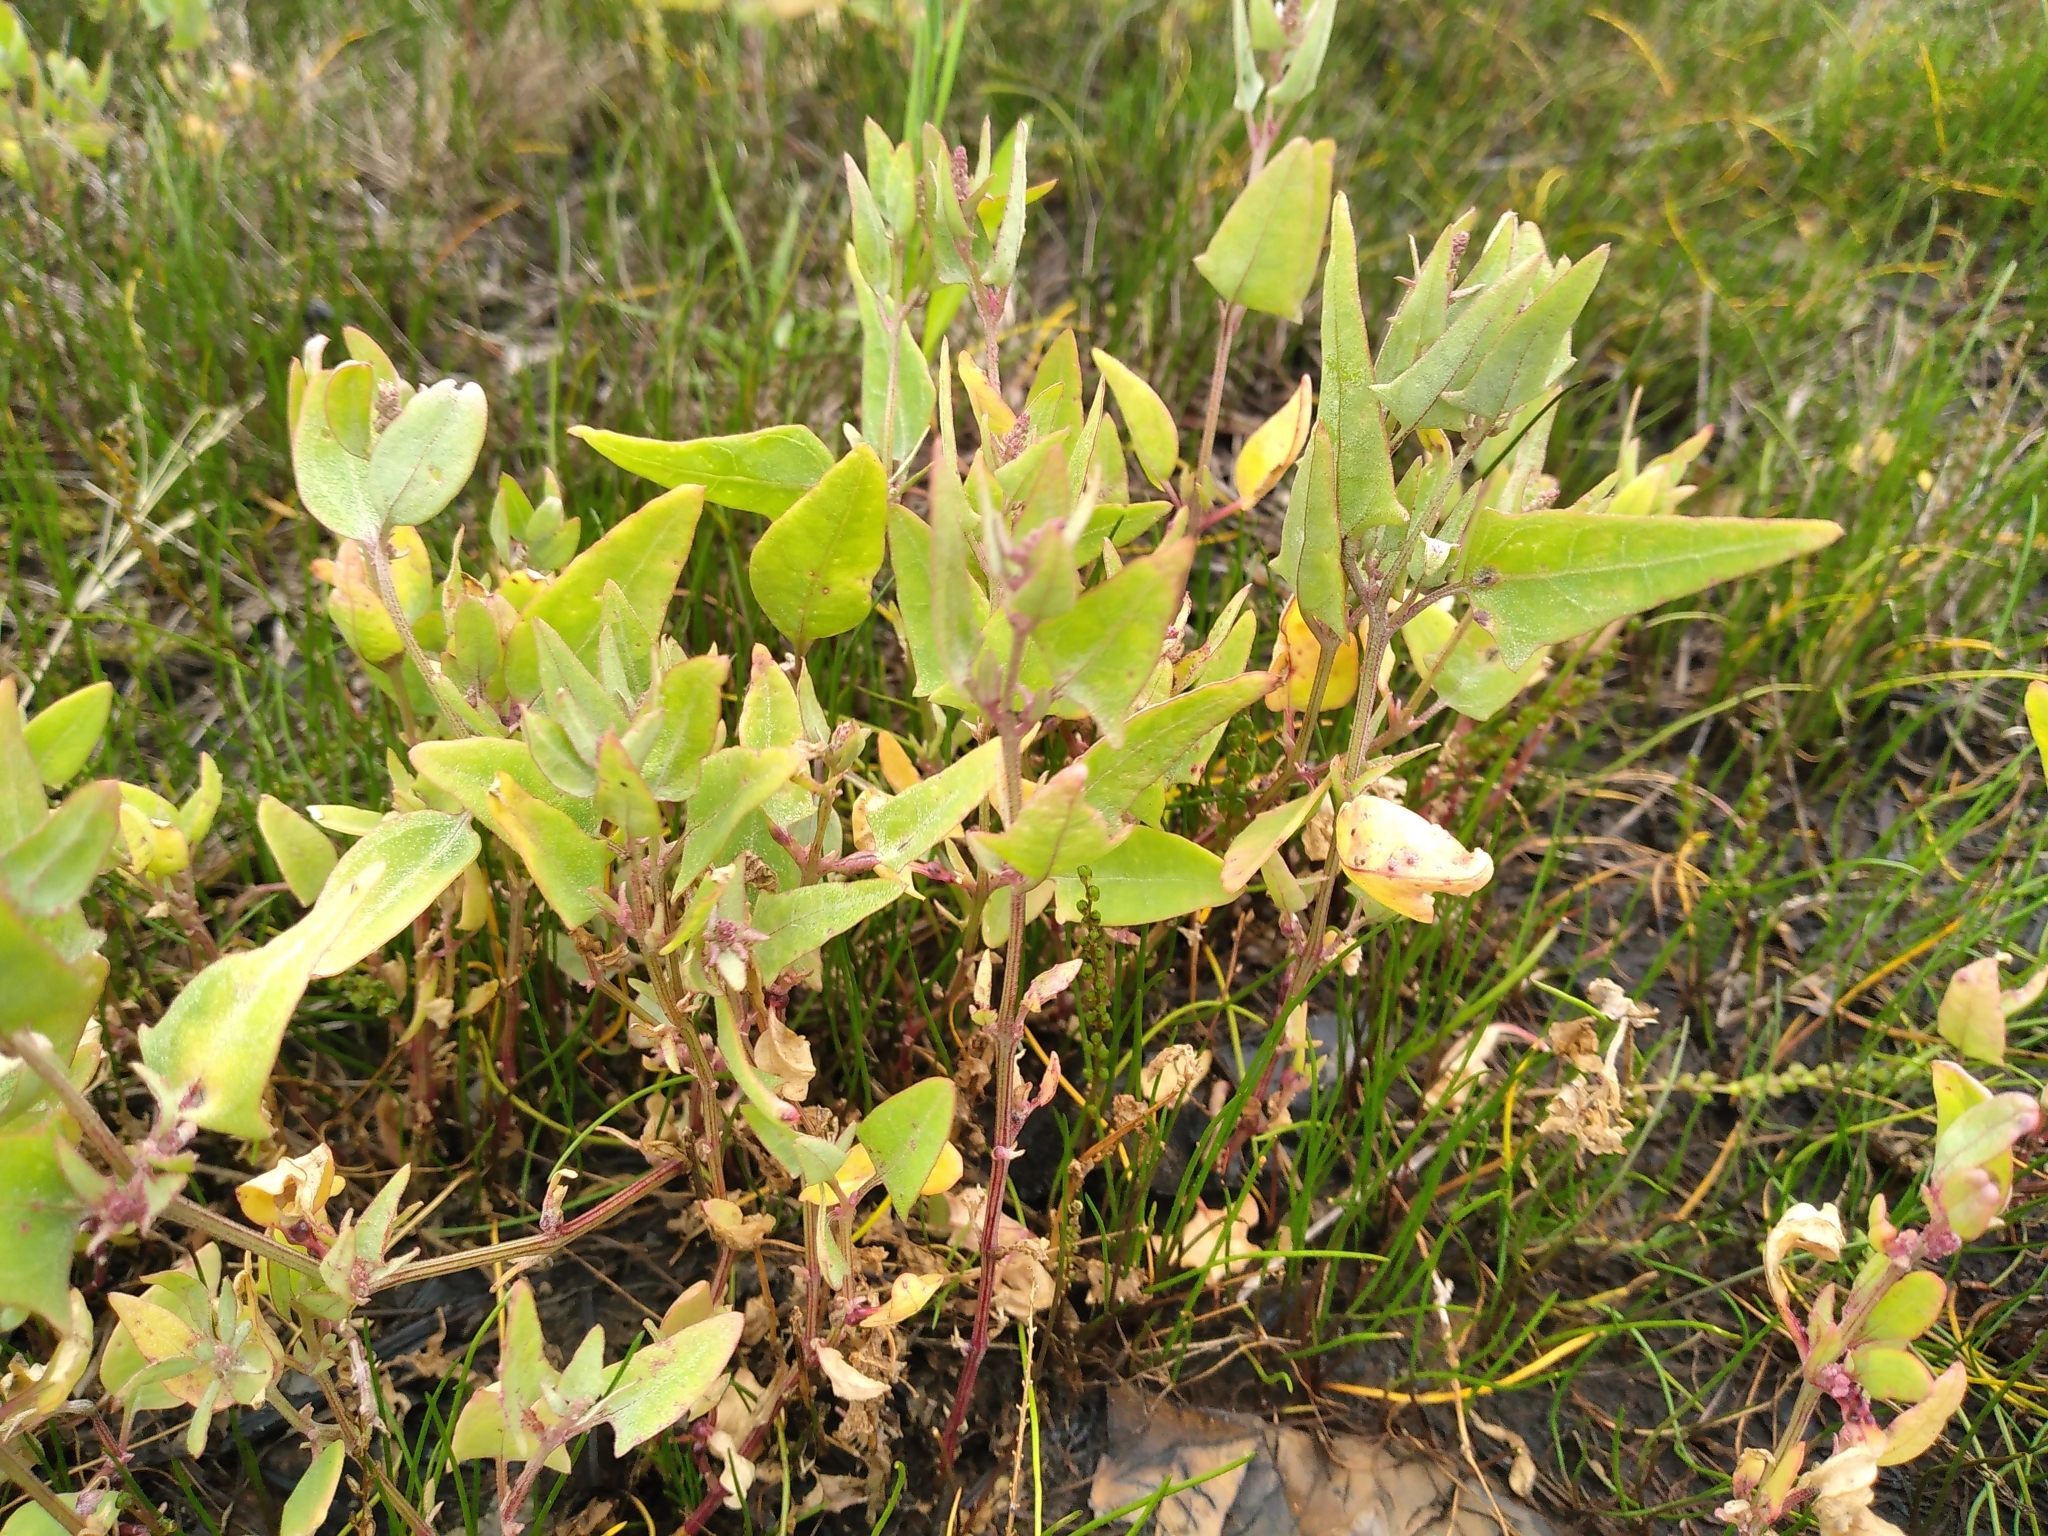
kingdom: Plantae
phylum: Tracheophyta
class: Magnoliopsida
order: Caryophyllales
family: Amaranthaceae
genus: Atriplex
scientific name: Atriplex prostrata
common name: Spear-leaved orache
